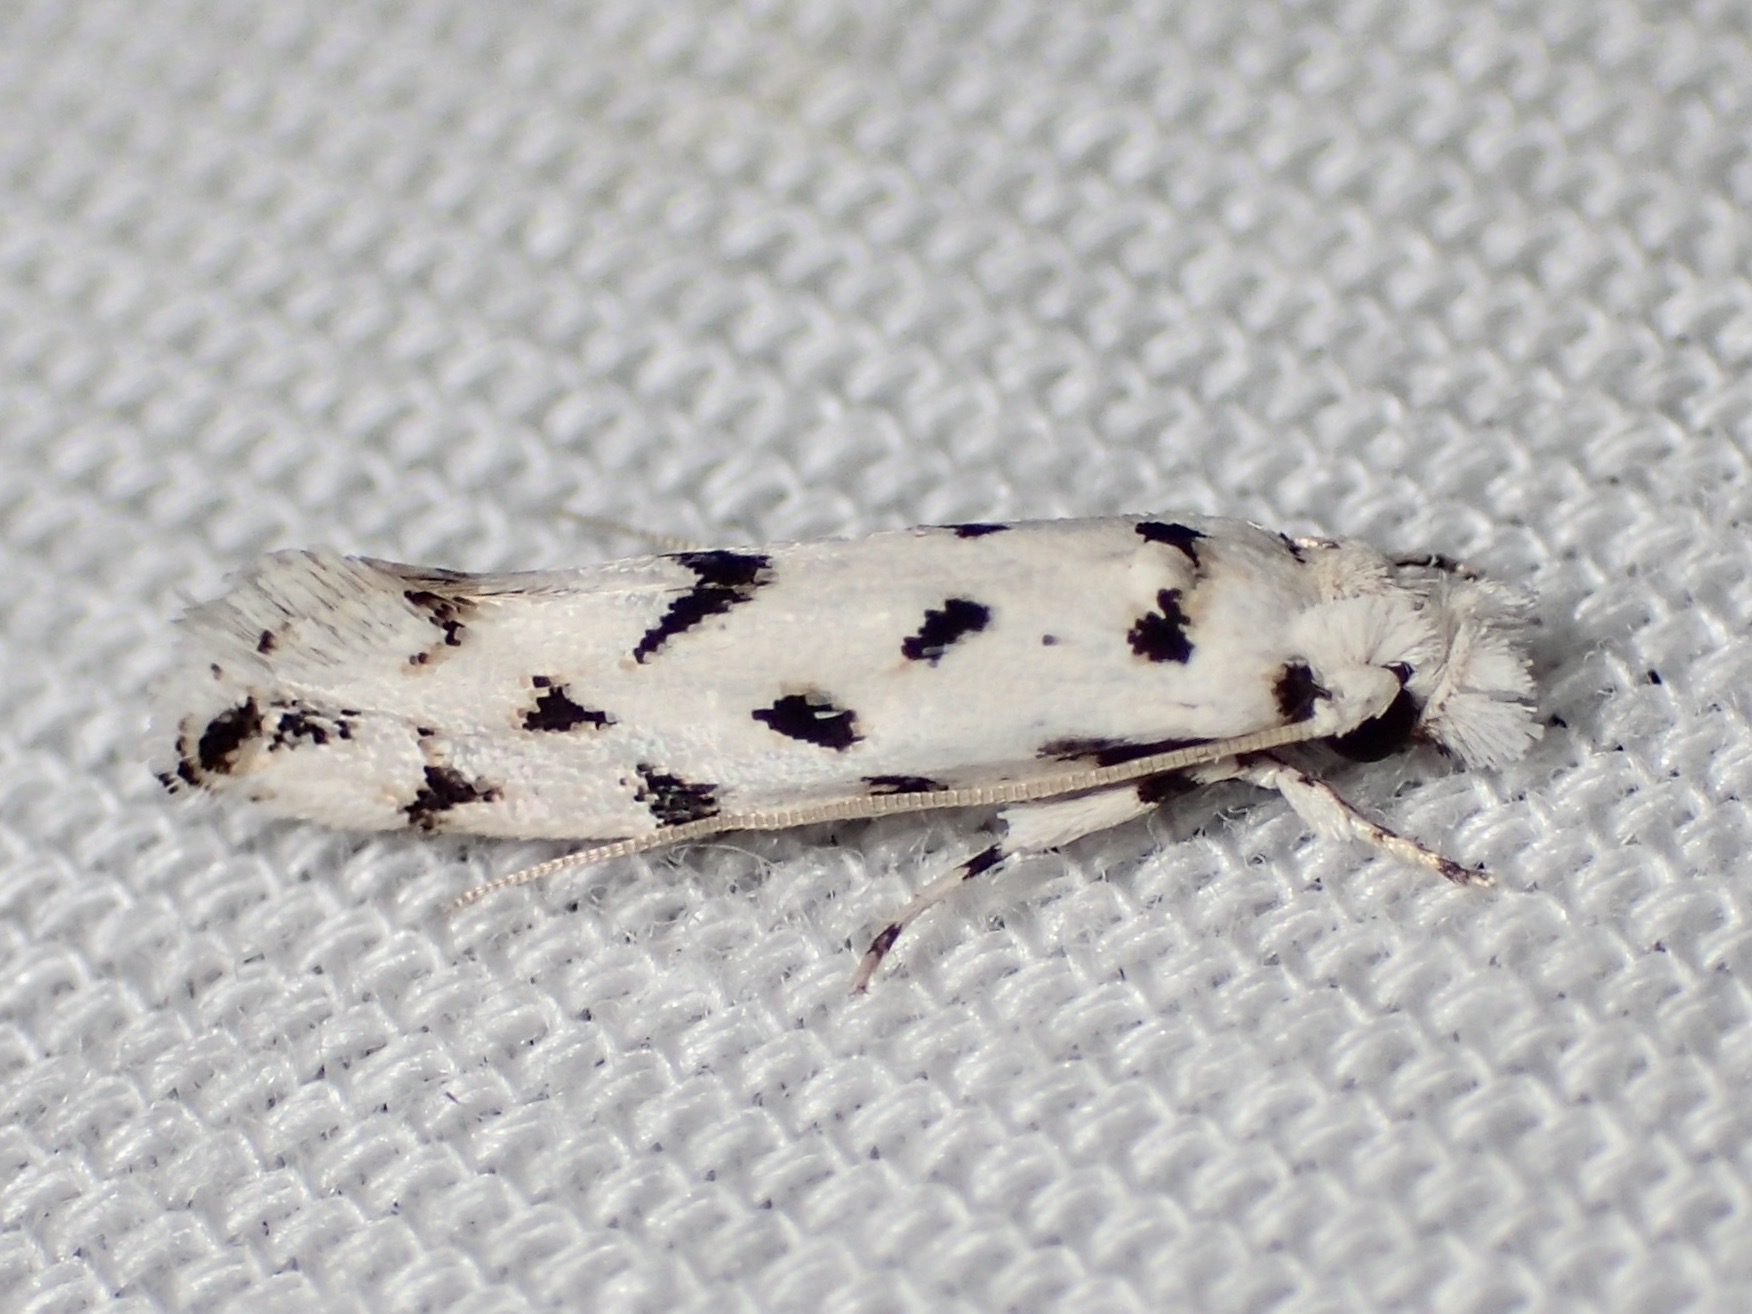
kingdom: Animalia
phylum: Arthropoda
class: Insecta
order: Lepidoptera
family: Tineidae
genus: Erechthias
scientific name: Erechthias simulans
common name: Fungus moth
